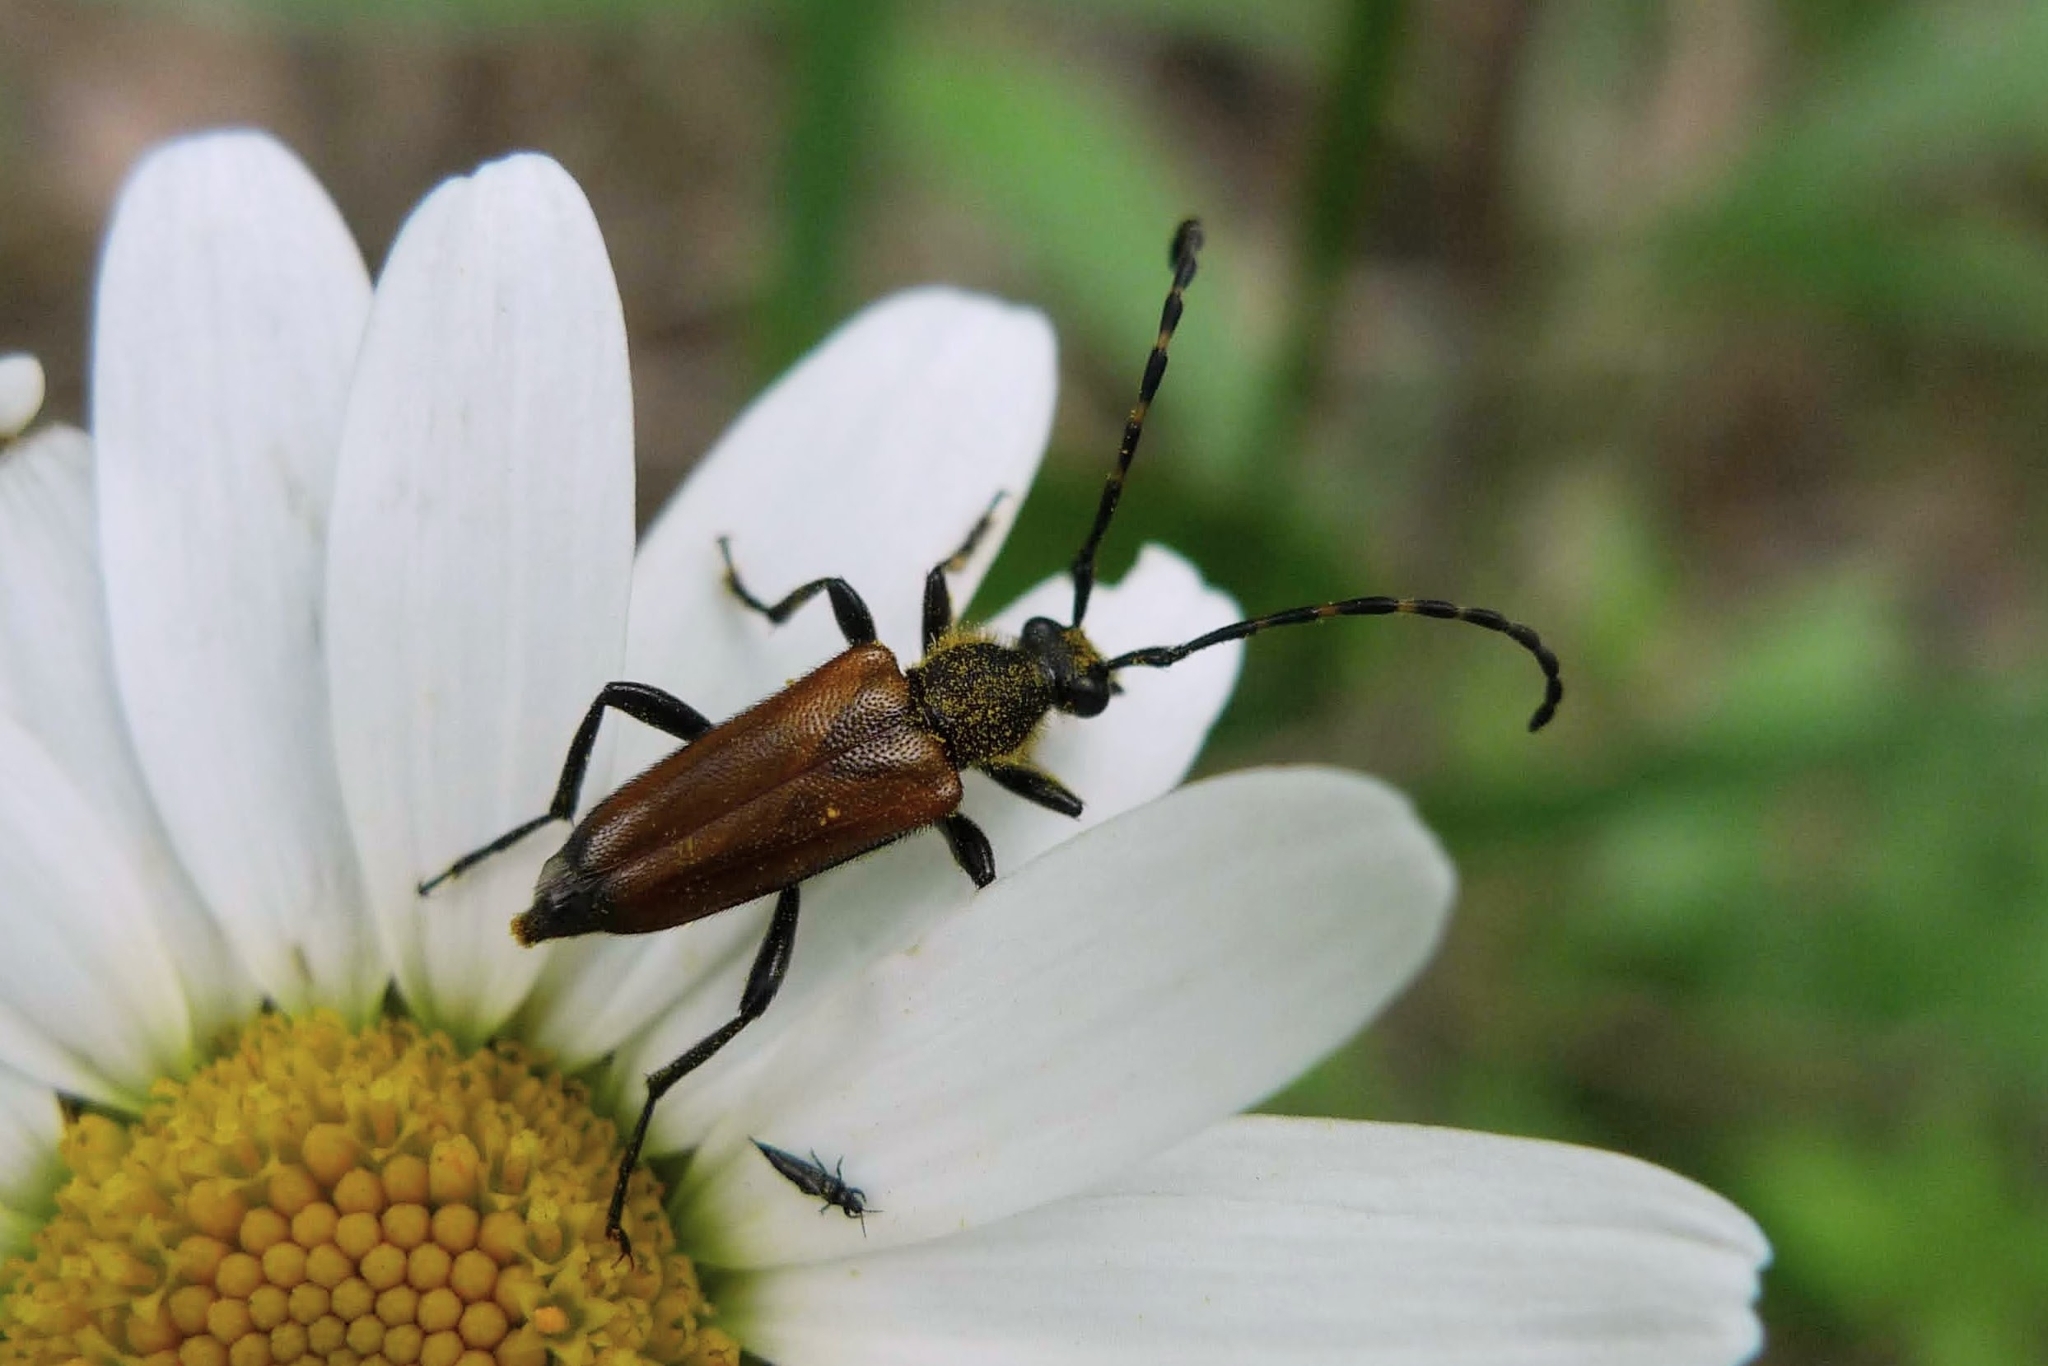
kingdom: Animalia
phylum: Arthropoda
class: Insecta
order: Coleoptera
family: Cerambycidae
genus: Paracorymbia
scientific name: Paracorymbia maculicornis
